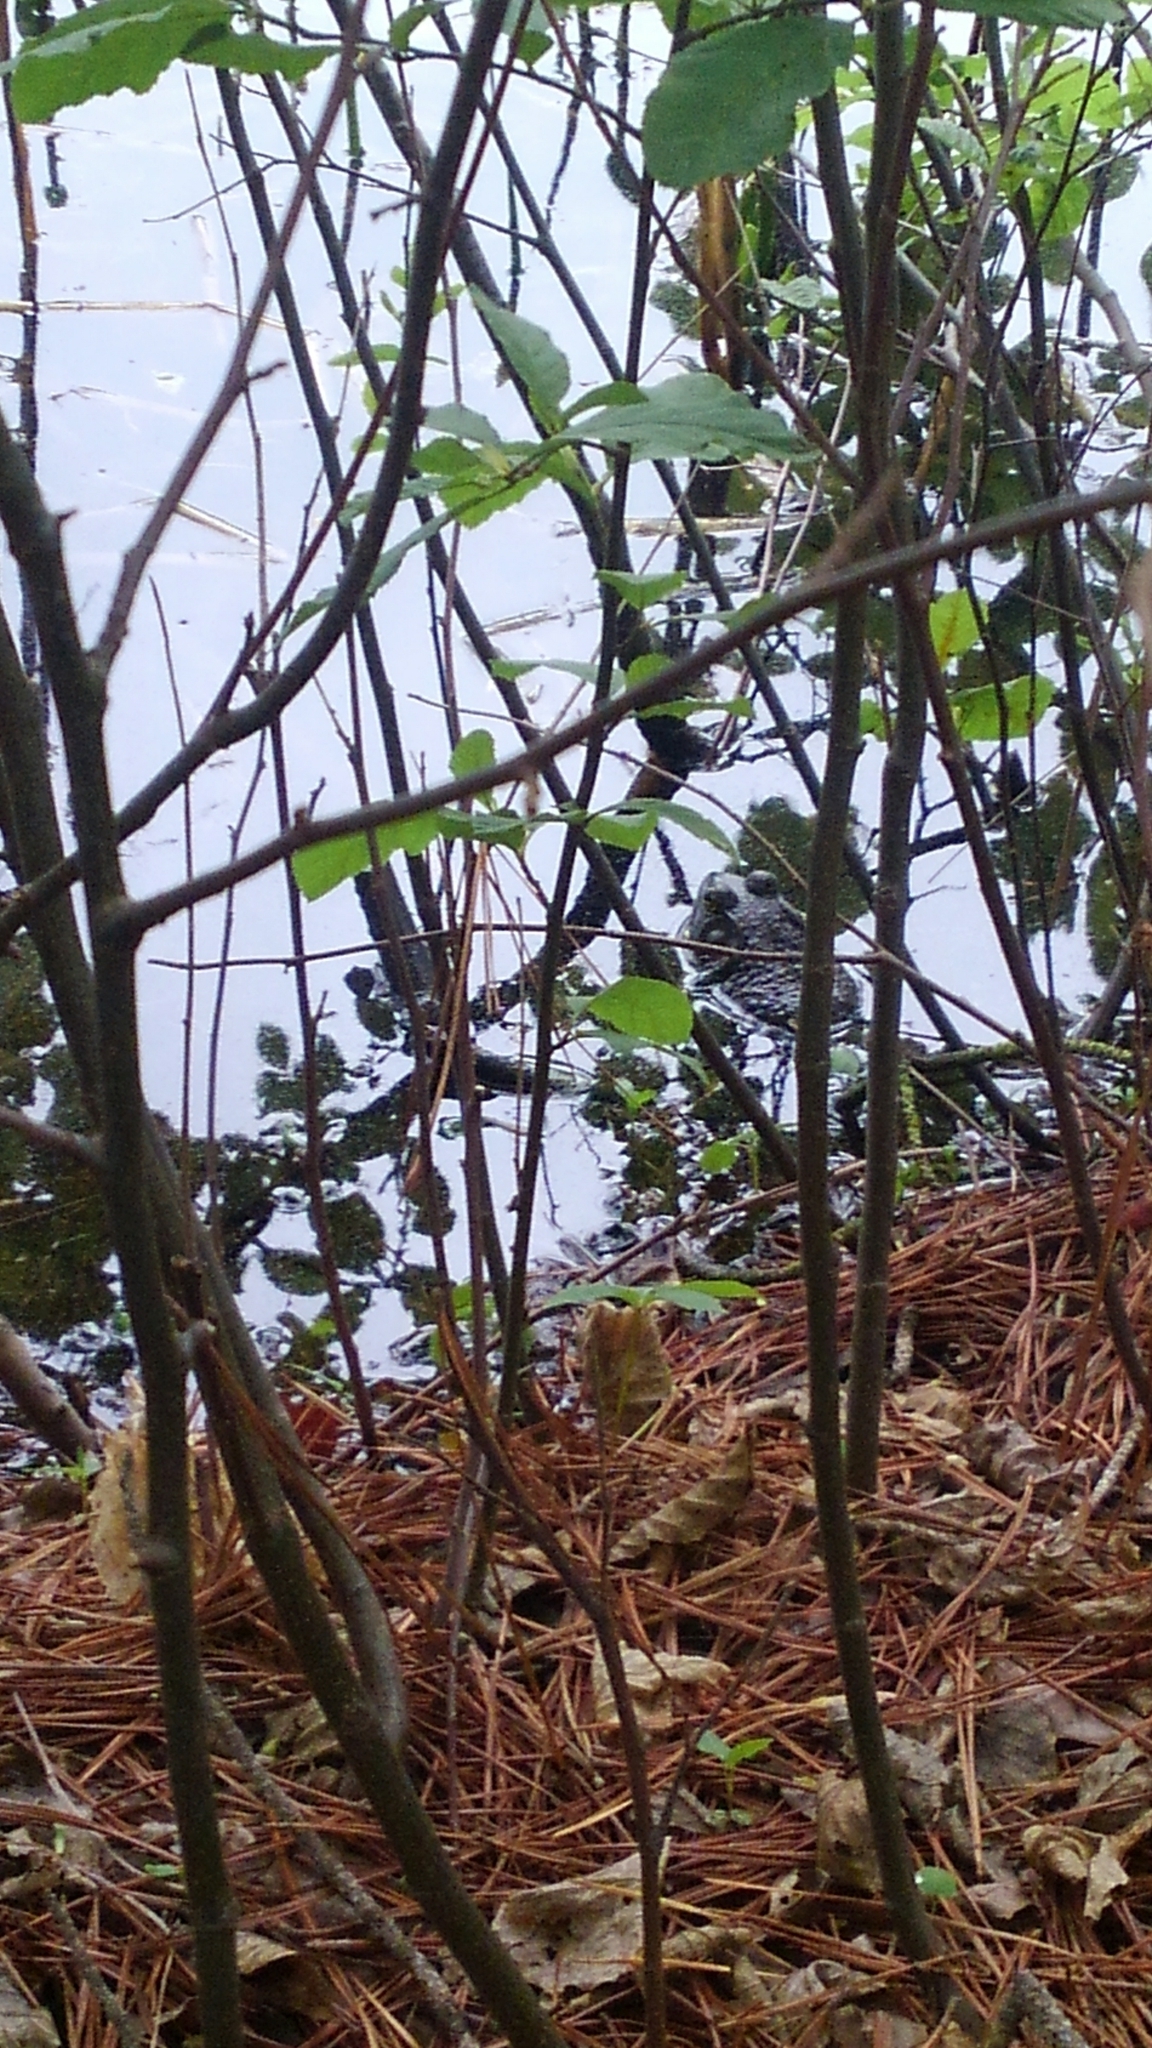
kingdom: Animalia
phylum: Chordata
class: Amphibia
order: Anura
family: Ranidae
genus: Lithobates
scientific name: Lithobates catesbeianus
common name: American bullfrog
